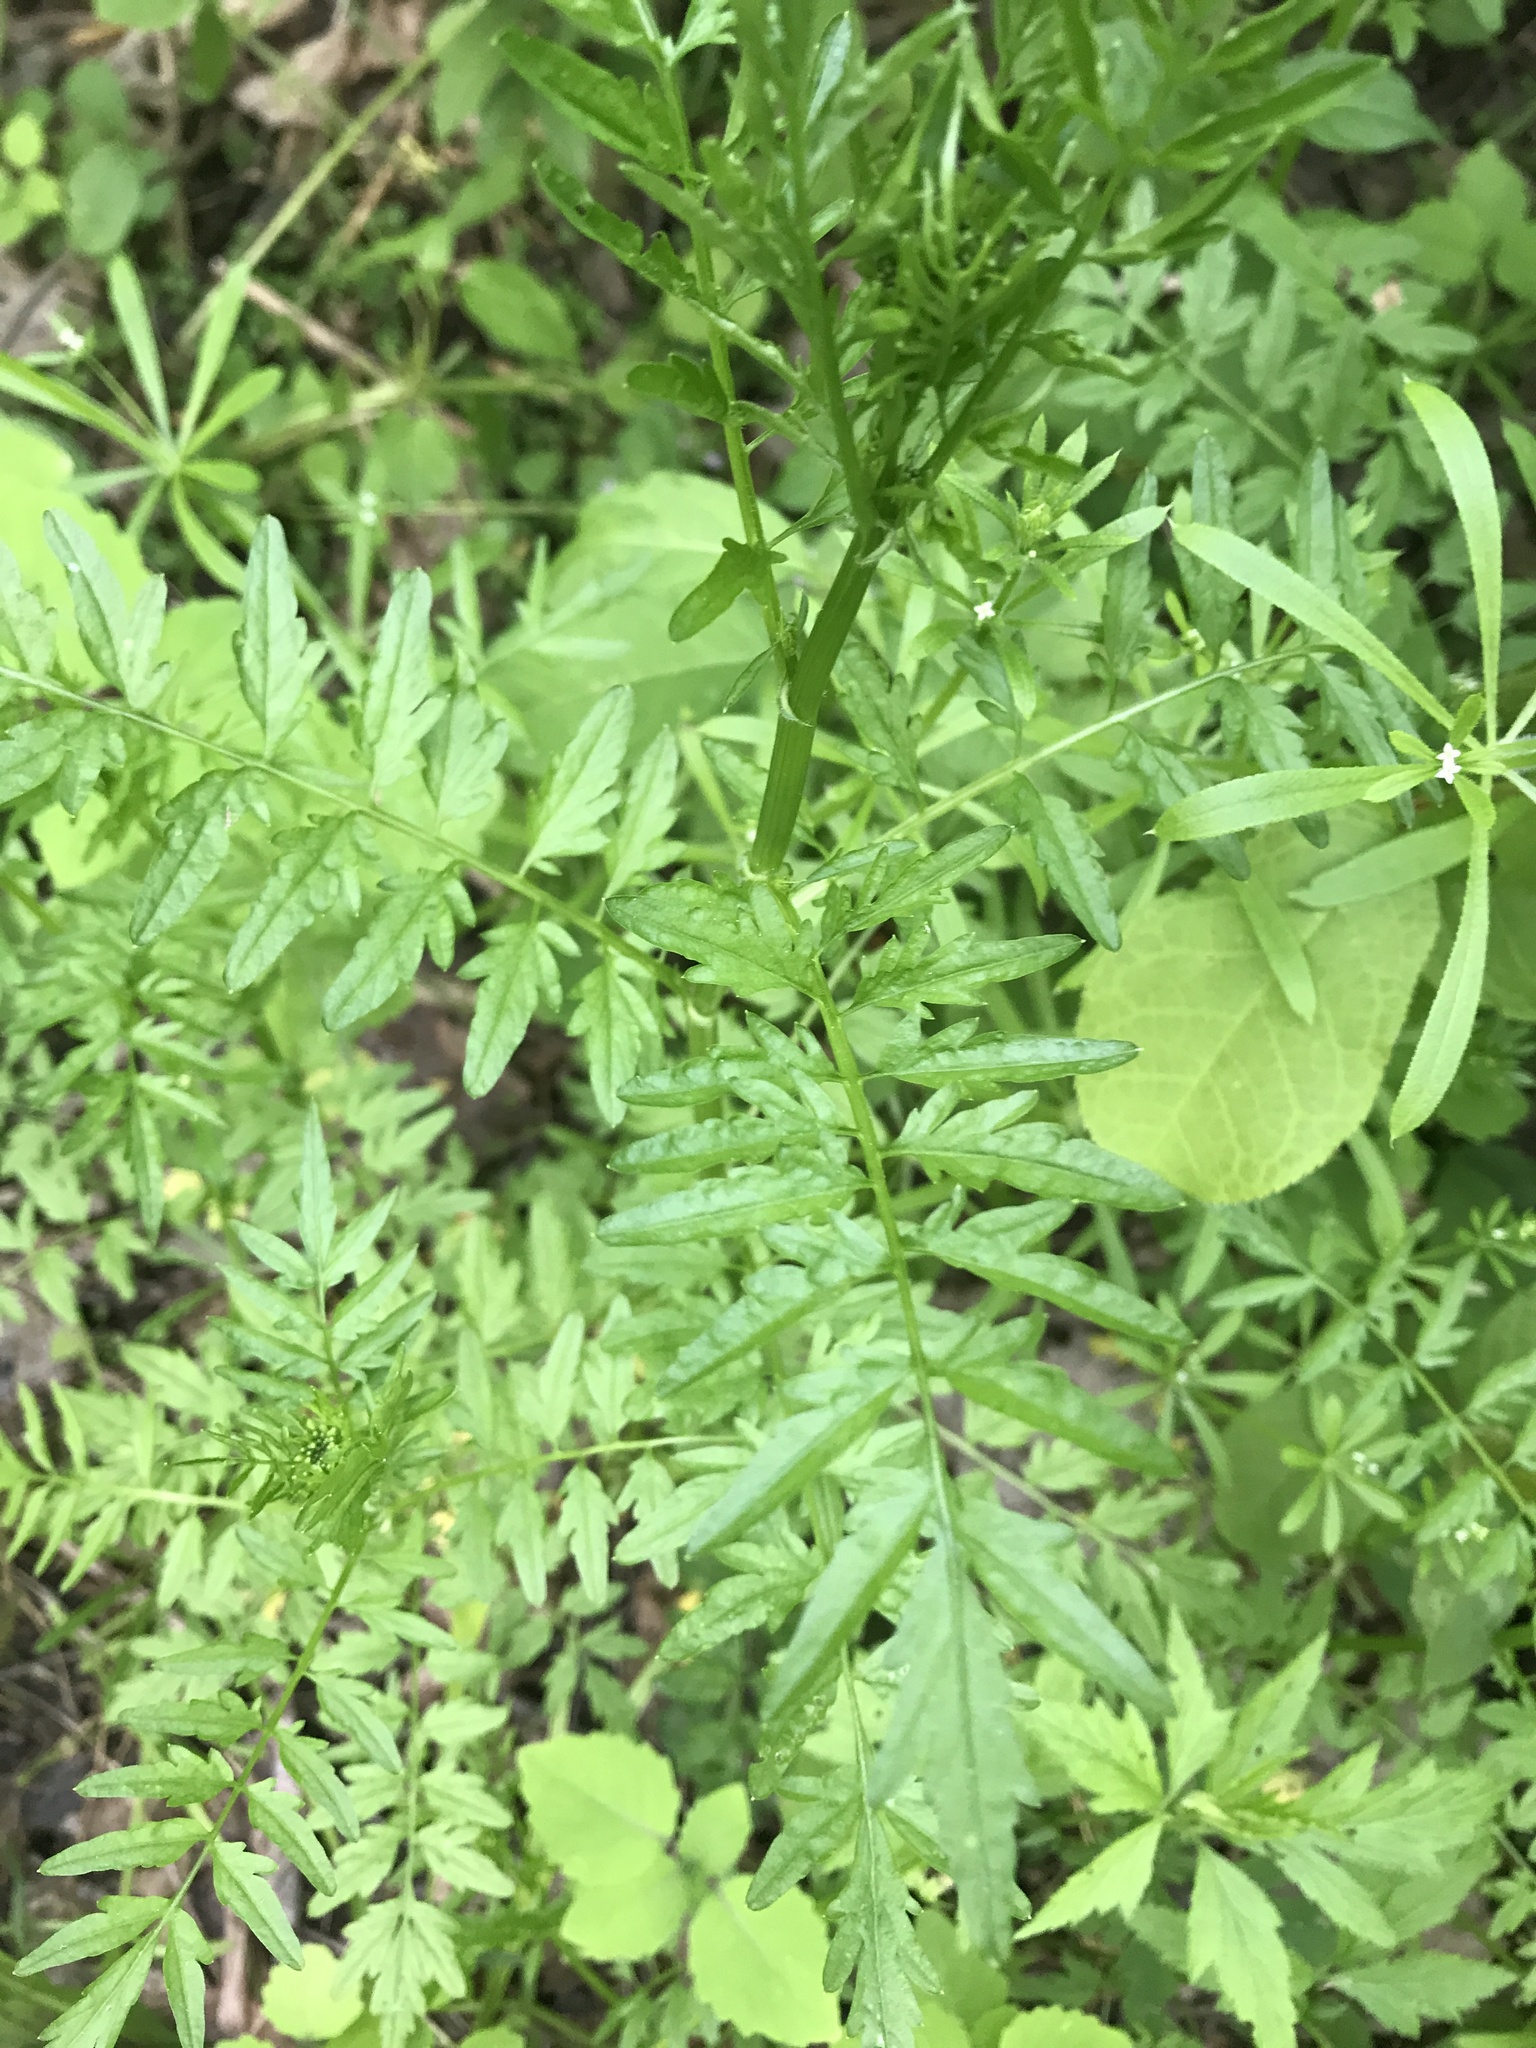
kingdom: Plantae
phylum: Tracheophyta
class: Magnoliopsida
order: Brassicales
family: Brassicaceae
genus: Cardamine
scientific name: Cardamine impatiens
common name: Narrow-leaved bitter-cress
